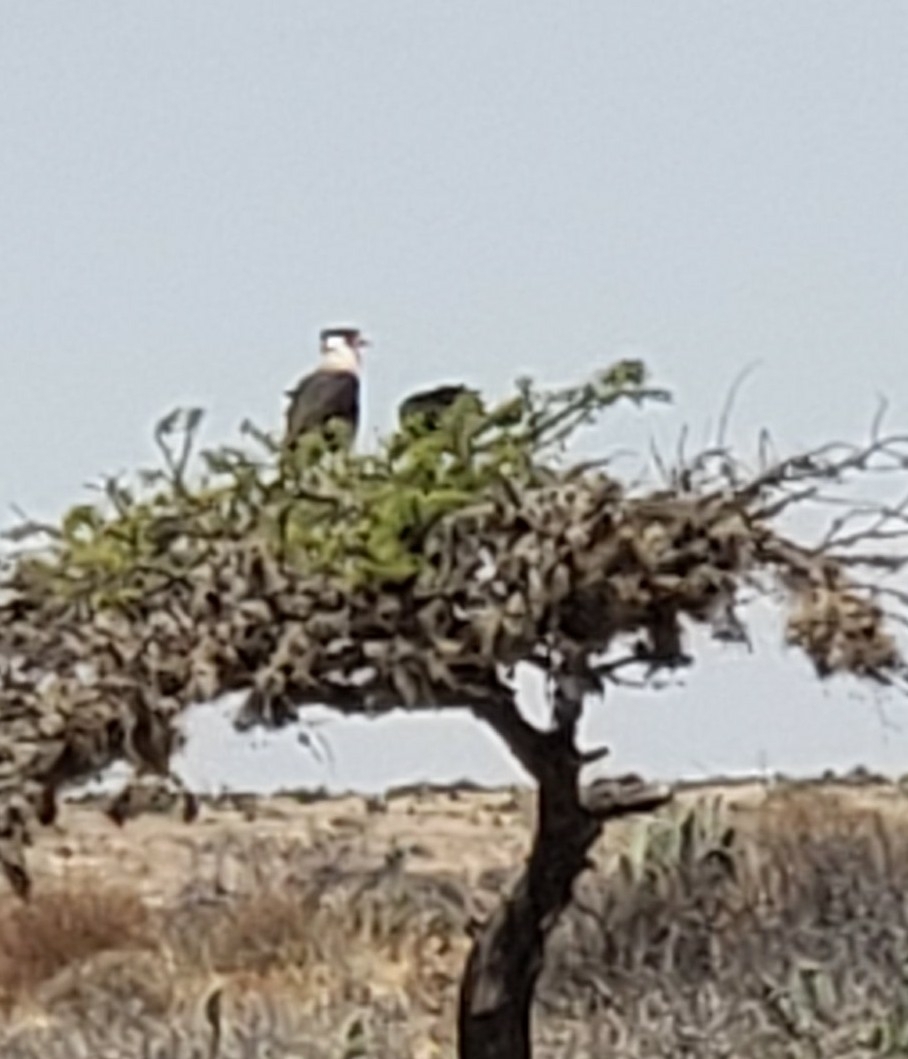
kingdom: Animalia
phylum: Chordata
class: Aves
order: Falconiformes
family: Falconidae
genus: Caracara
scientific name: Caracara plancus
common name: Southern caracara
